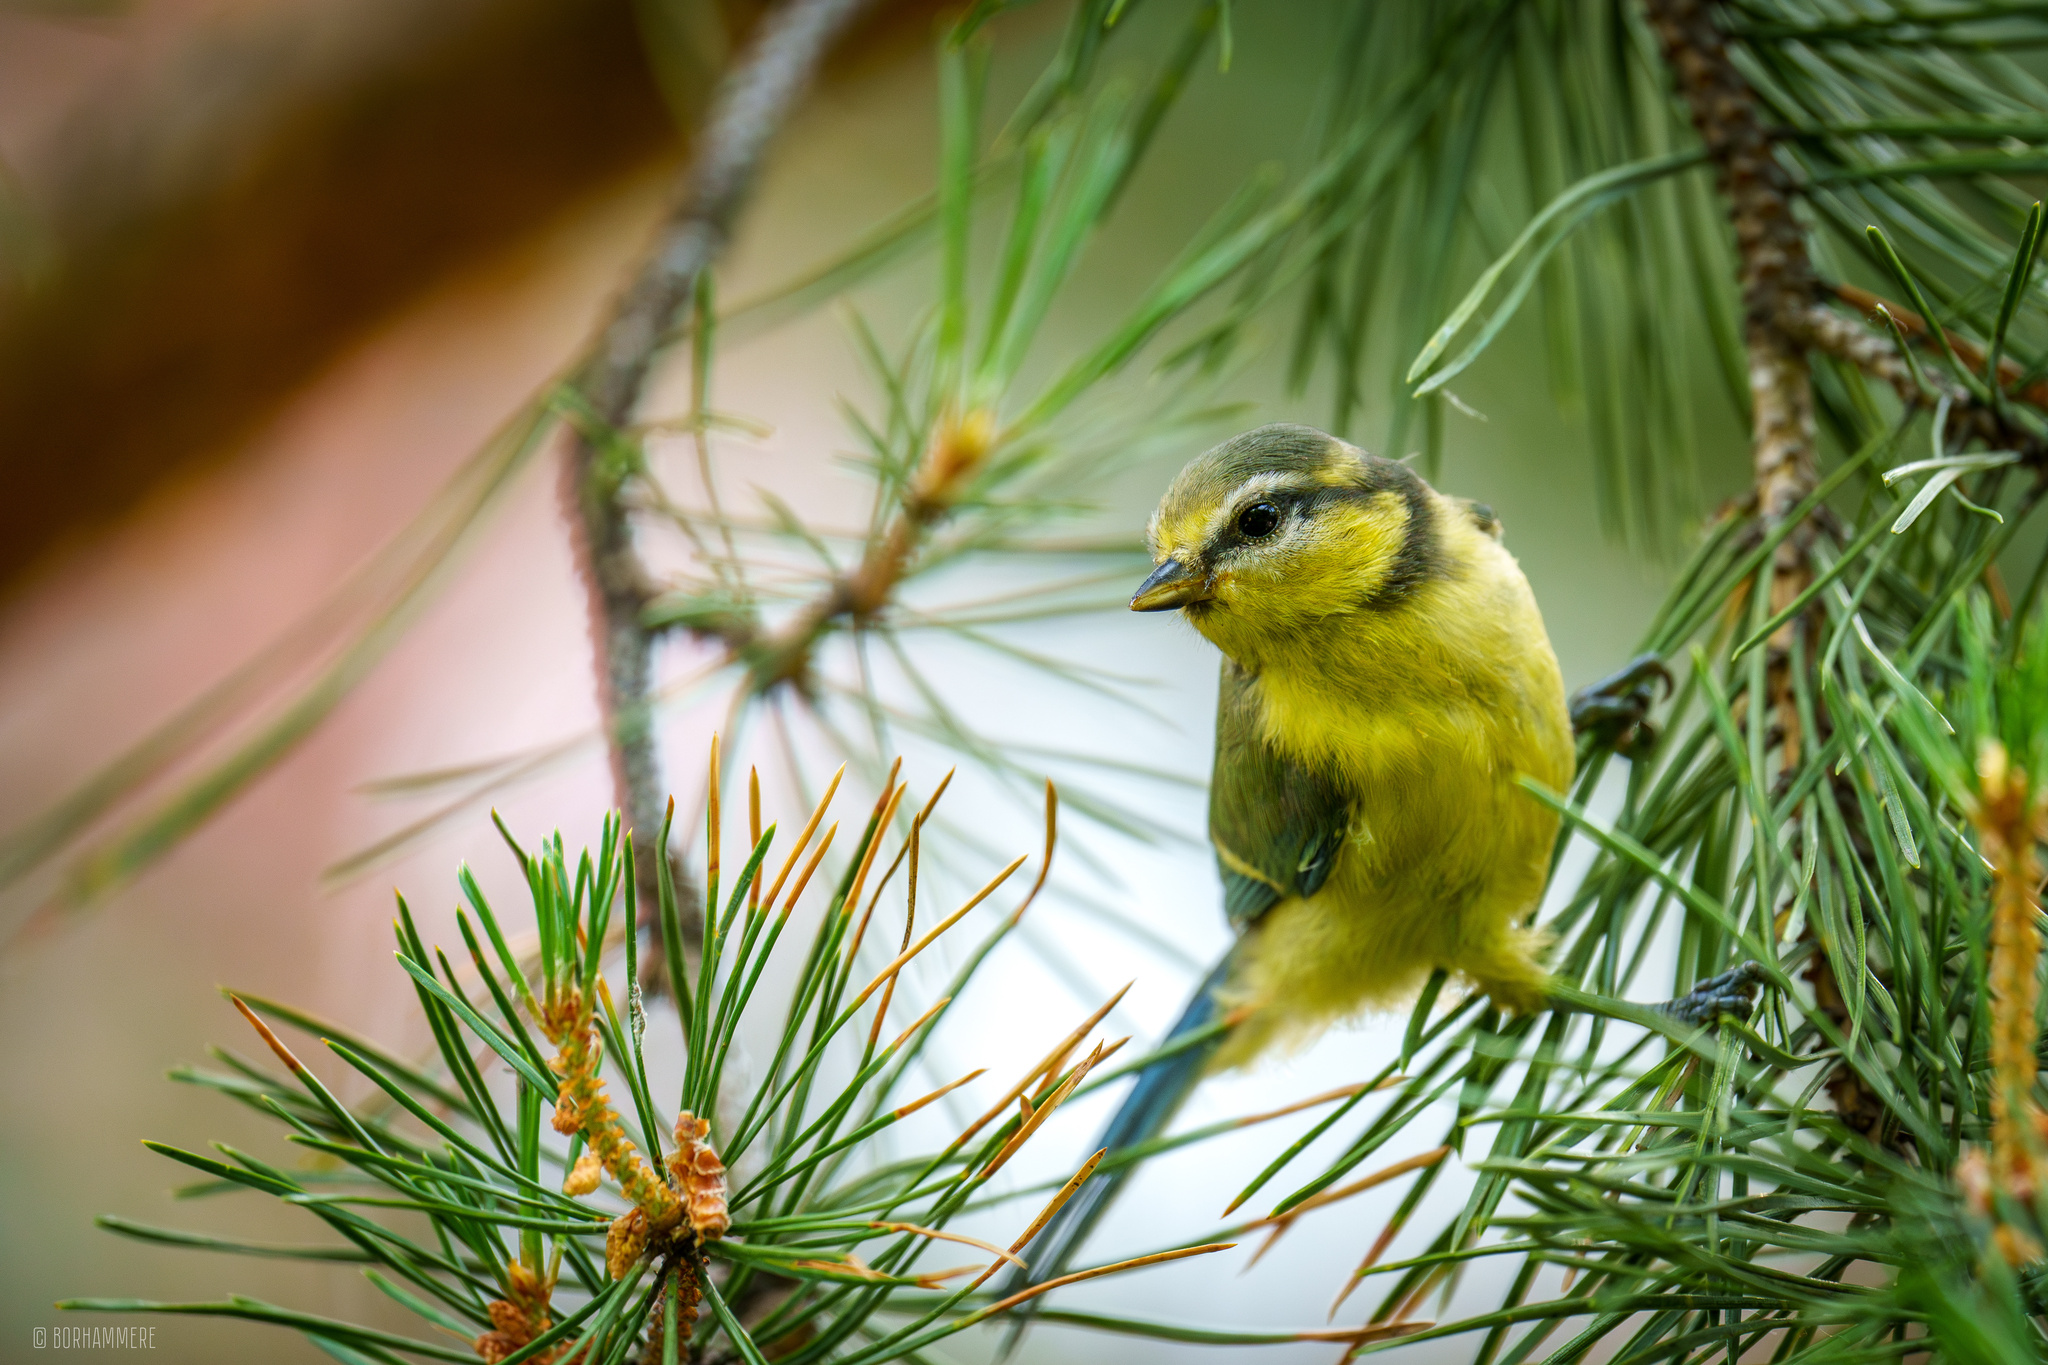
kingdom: Animalia
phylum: Chordata
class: Aves
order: Passeriformes
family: Paridae
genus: Cyanistes
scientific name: Cyanistes caeruleus
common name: Eurasian blue tit
